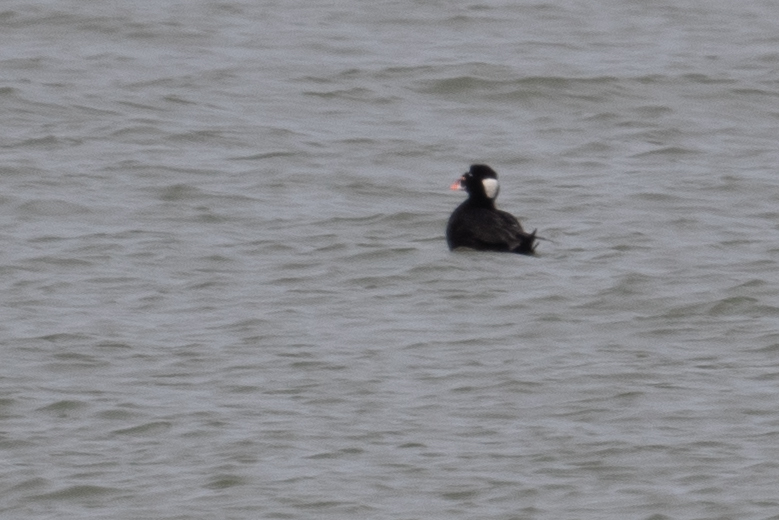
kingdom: Animalia
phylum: Chordata
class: Aves
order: Anseriformes
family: Anatidae
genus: Melanitta
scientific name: Melanitta perspicillata
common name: Surf scoter
